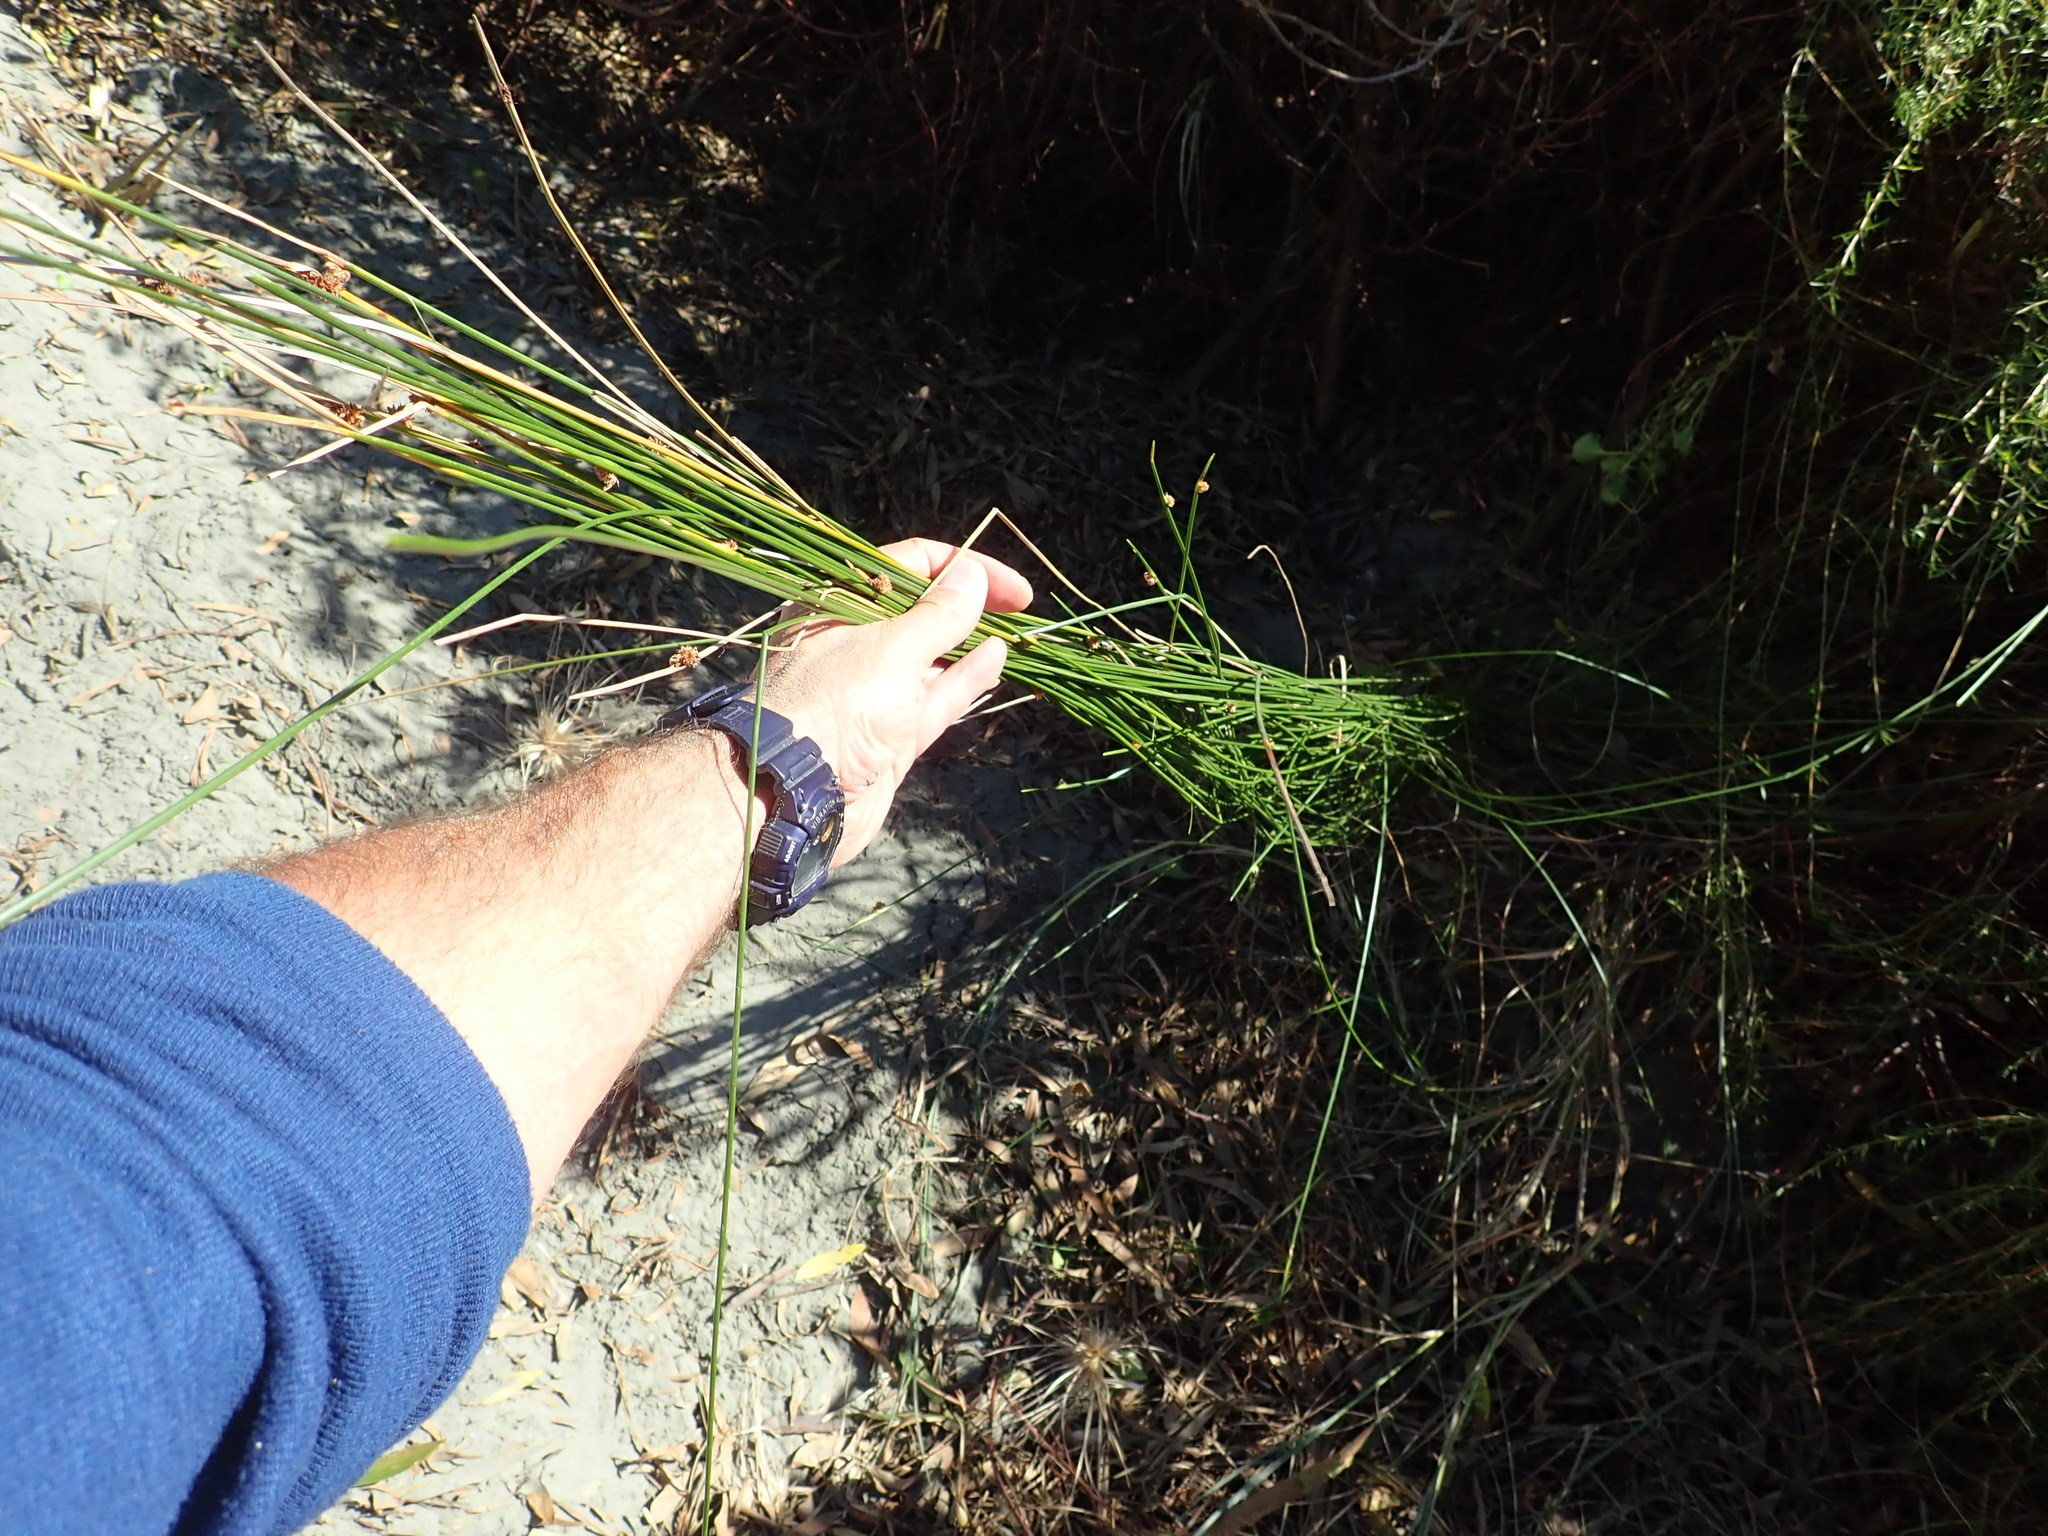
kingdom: Plantae
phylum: Tracheophyta
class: Liliopsida
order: Poales
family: Cyperaceae
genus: Ficinia
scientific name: Ficinia nodosa
